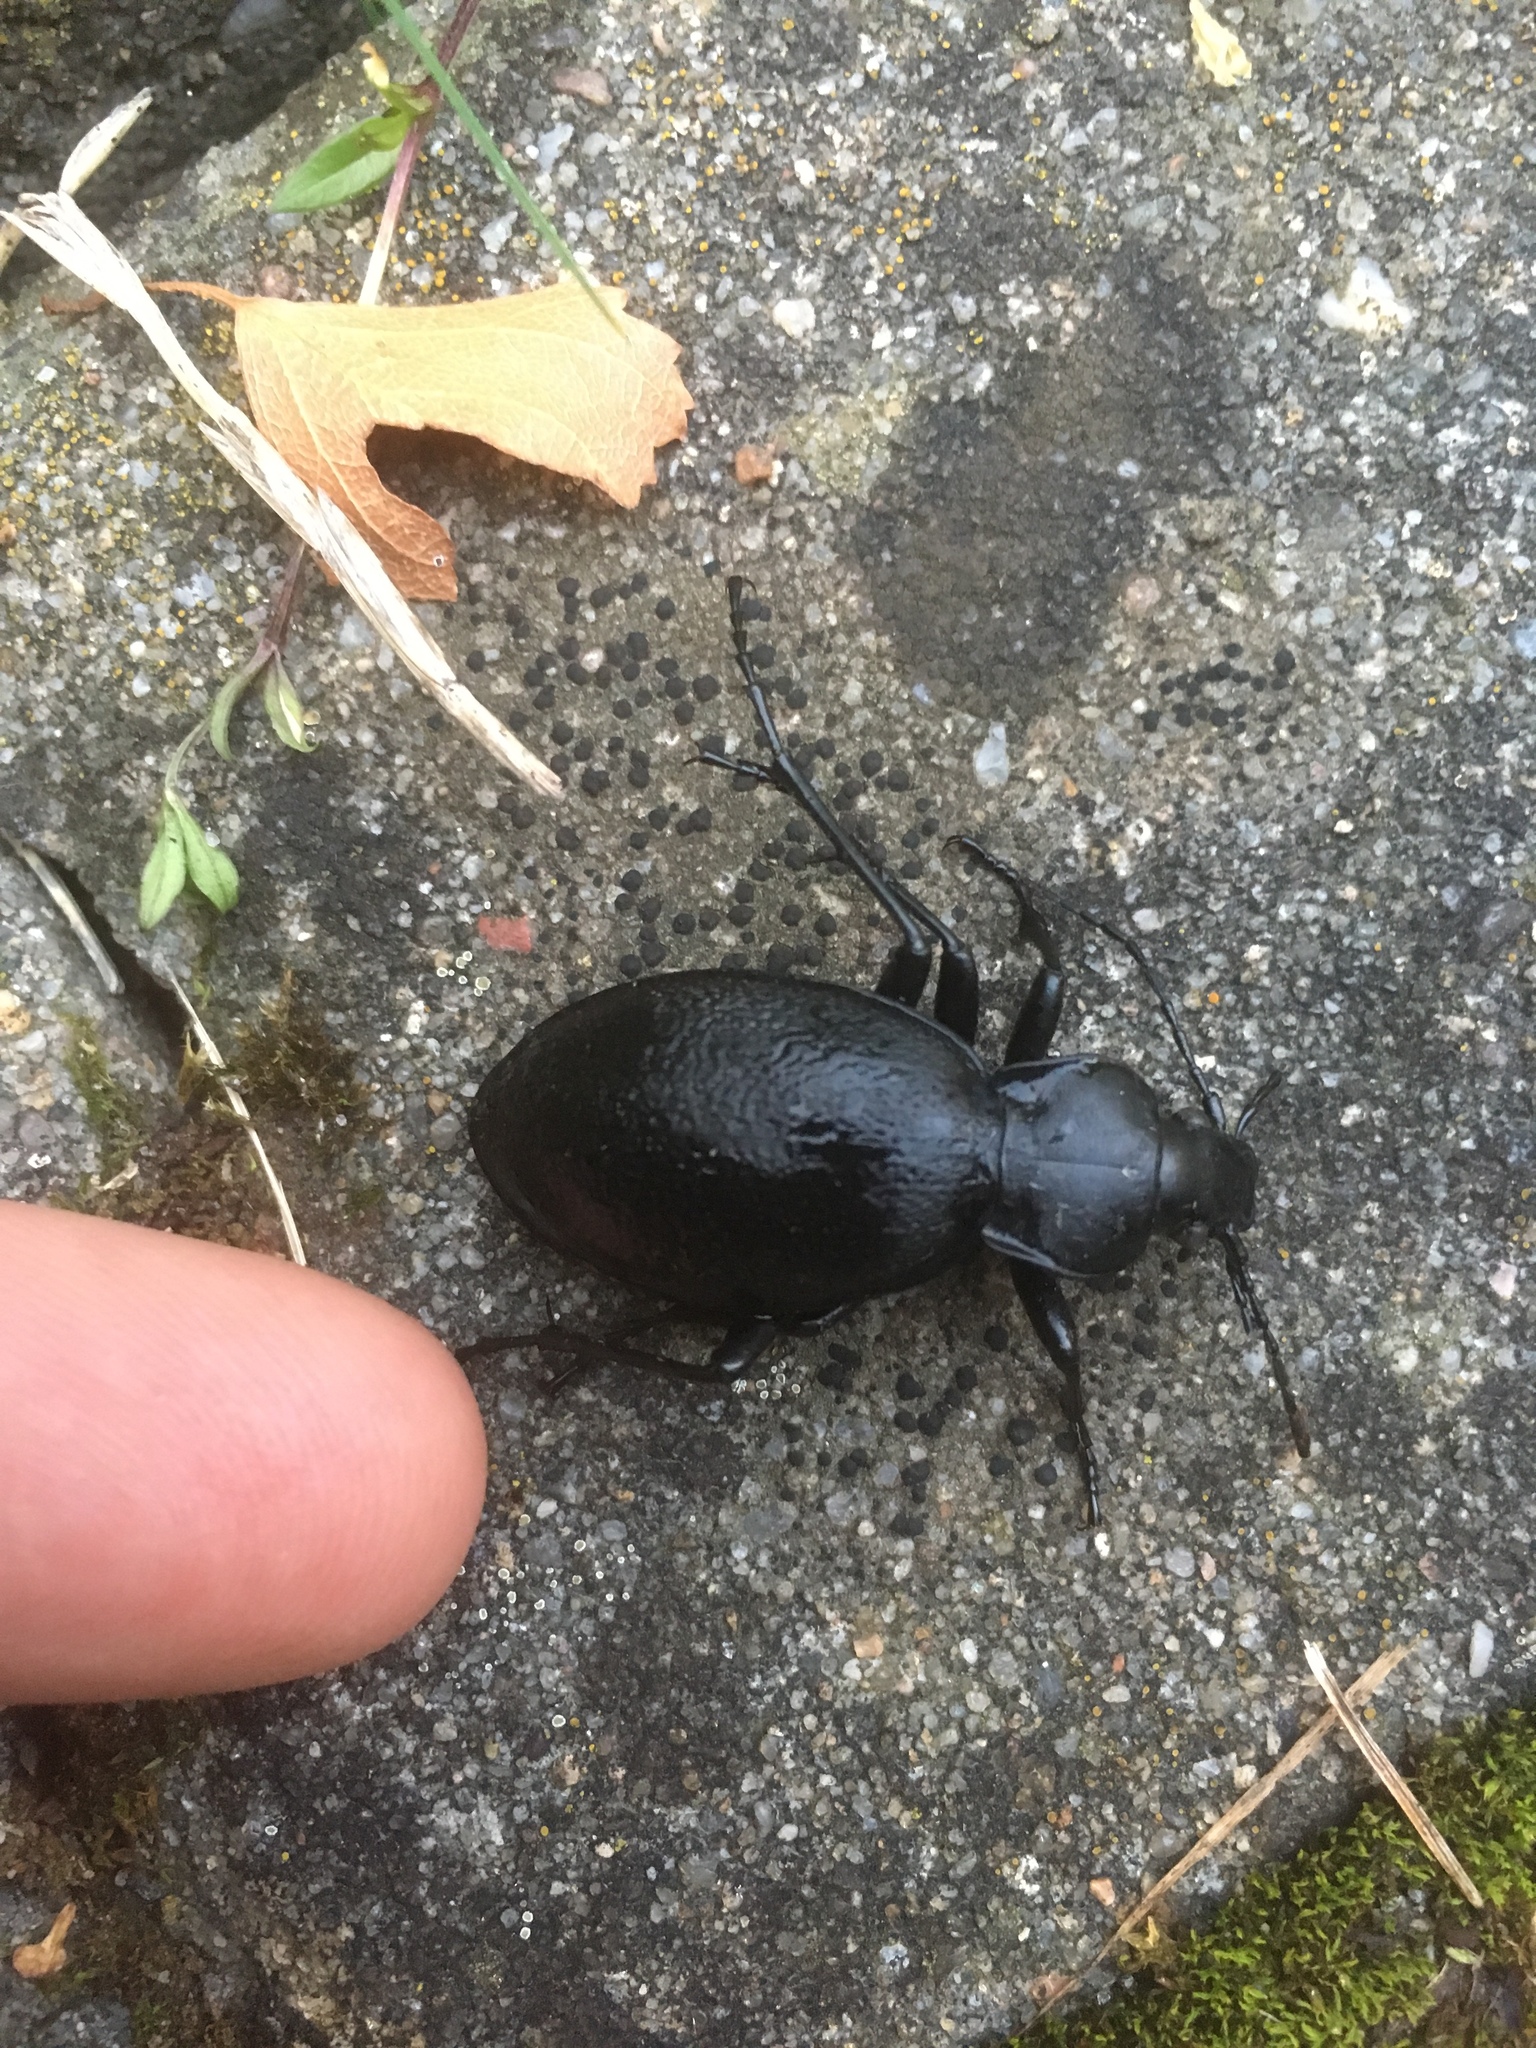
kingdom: Animalia
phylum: Arthropoda
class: Insecta
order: Coleoptera
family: Carabidae
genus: Carabus
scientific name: Carabus coriaceus
